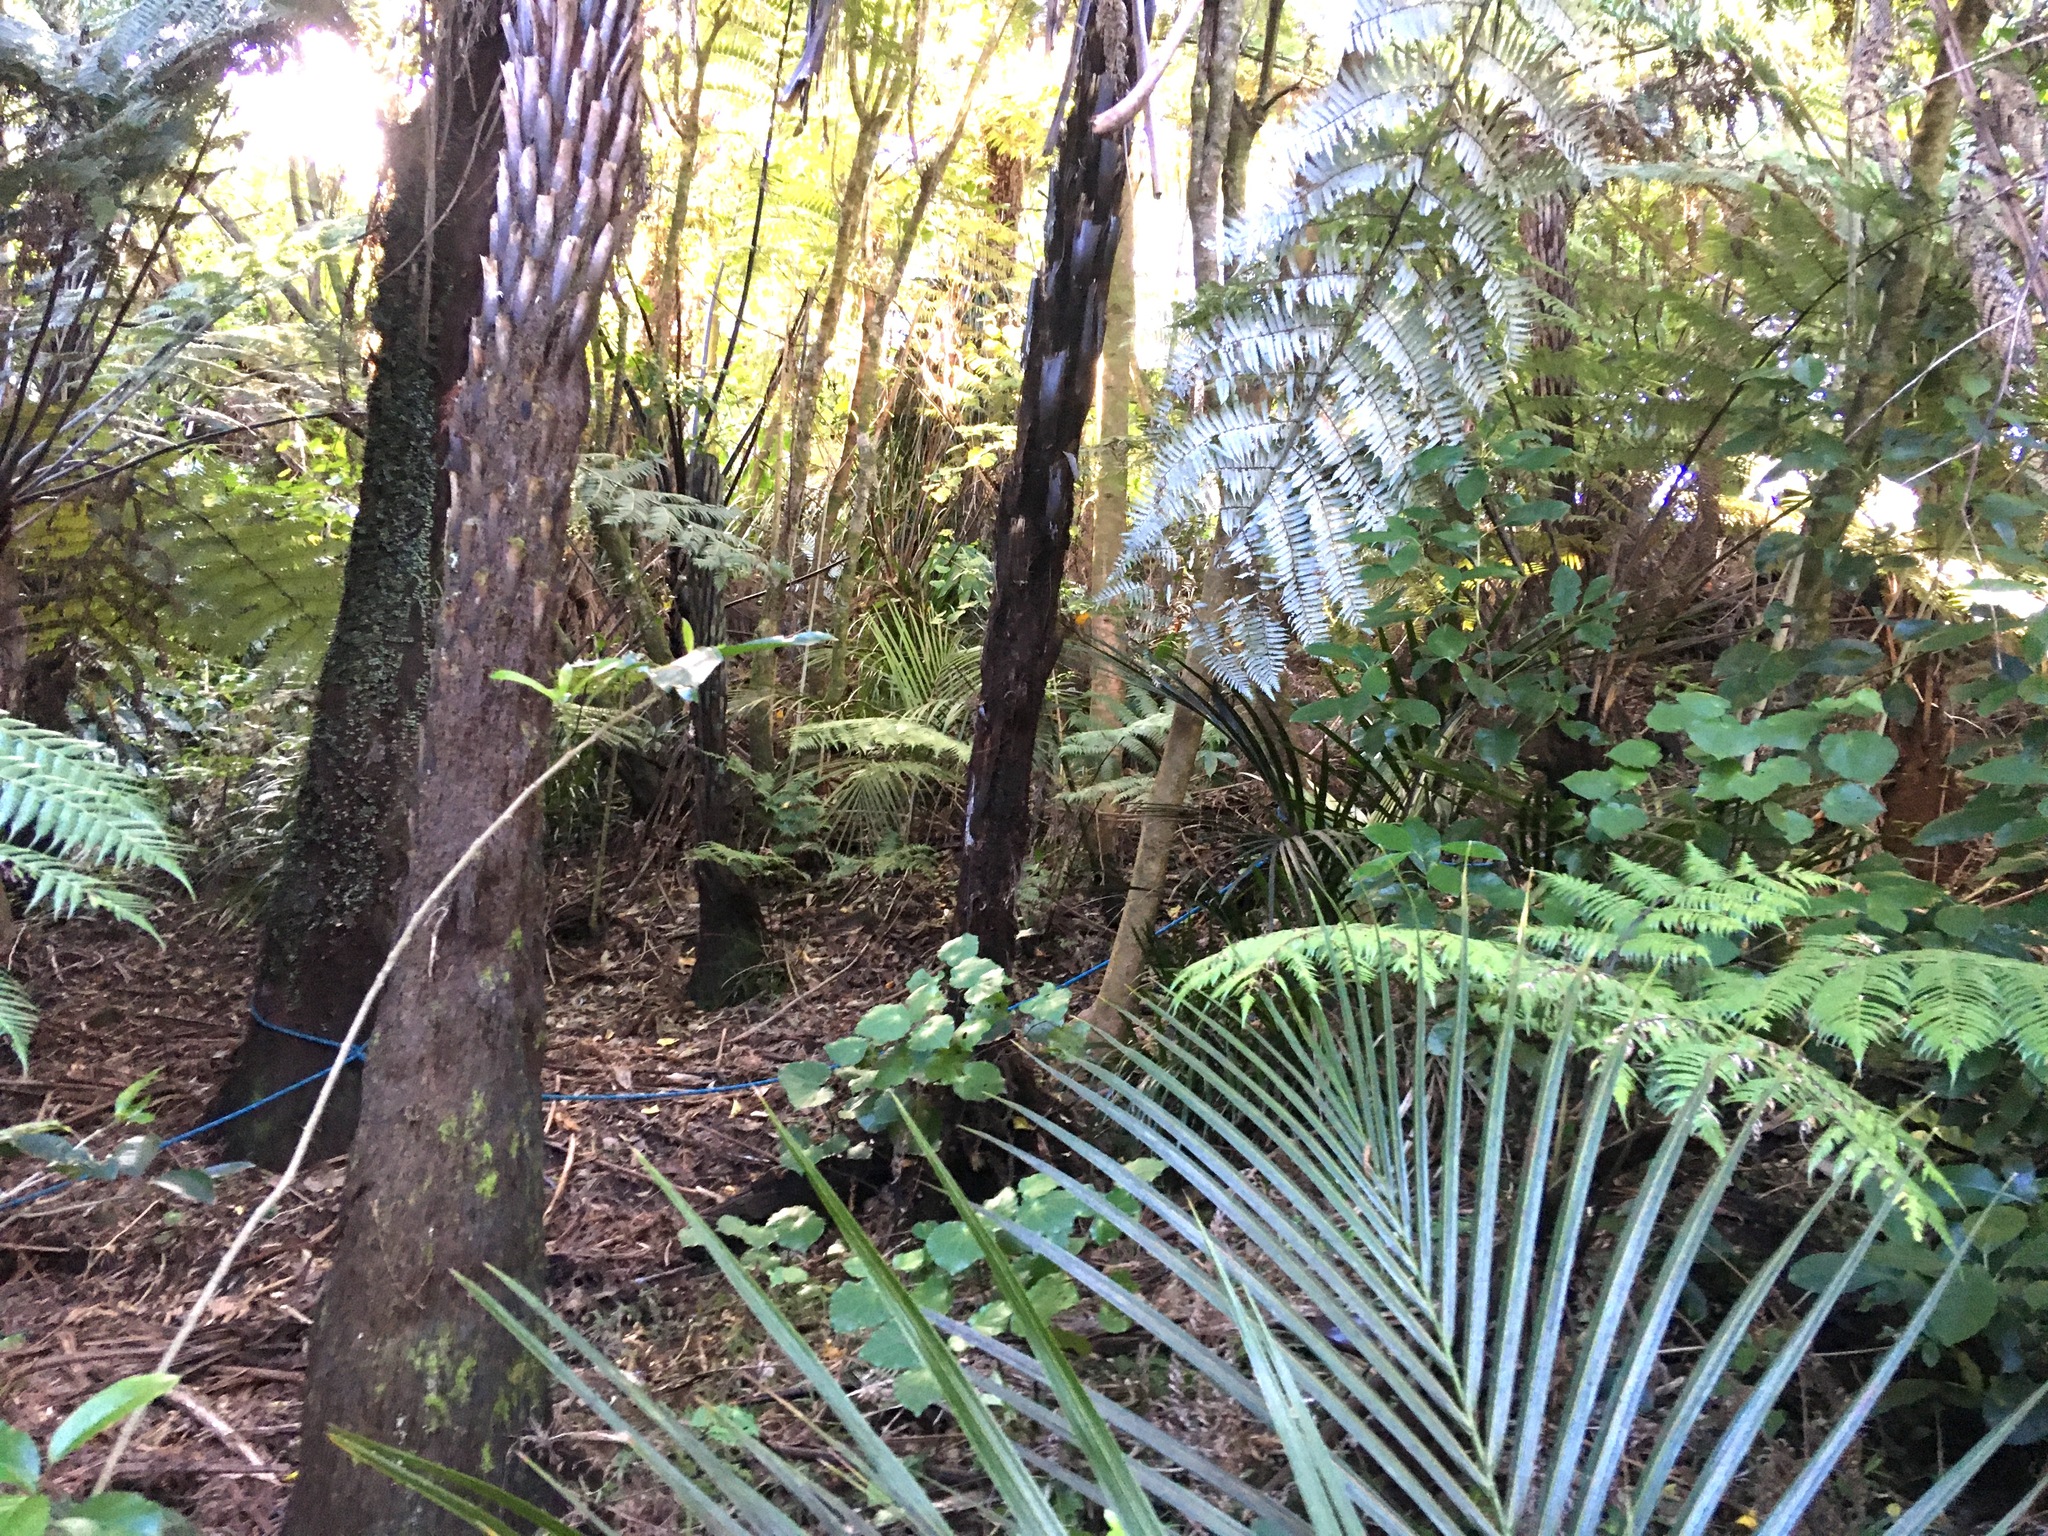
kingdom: Plantae
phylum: Tracheophyta
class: Polypodiopsida
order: Cyatheales
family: Cyatheaceae
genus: Sphaeropteris
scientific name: Sphaeropteris medullaris
